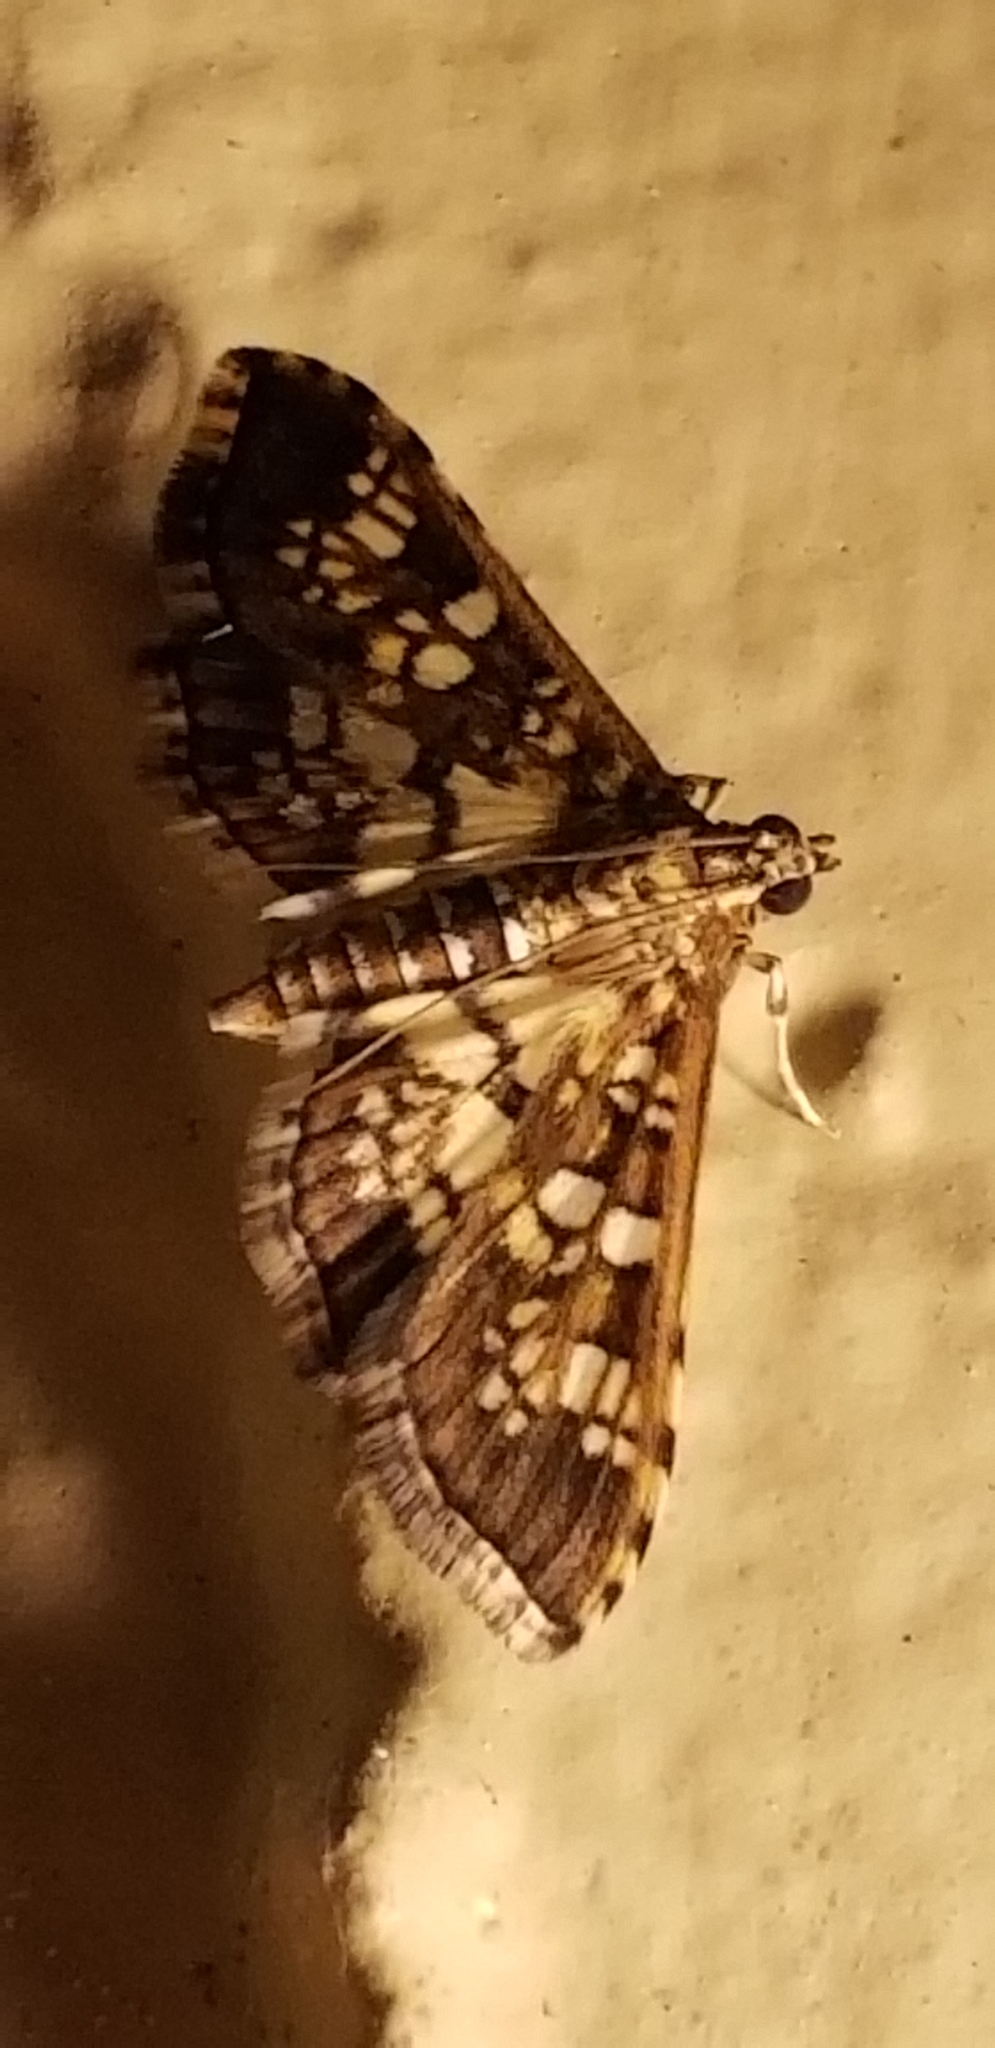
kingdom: Animalia
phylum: Arthropoda
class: Insecta
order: Lepidoptera
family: Crambidae
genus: Samea
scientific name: Samea ecclesialis
